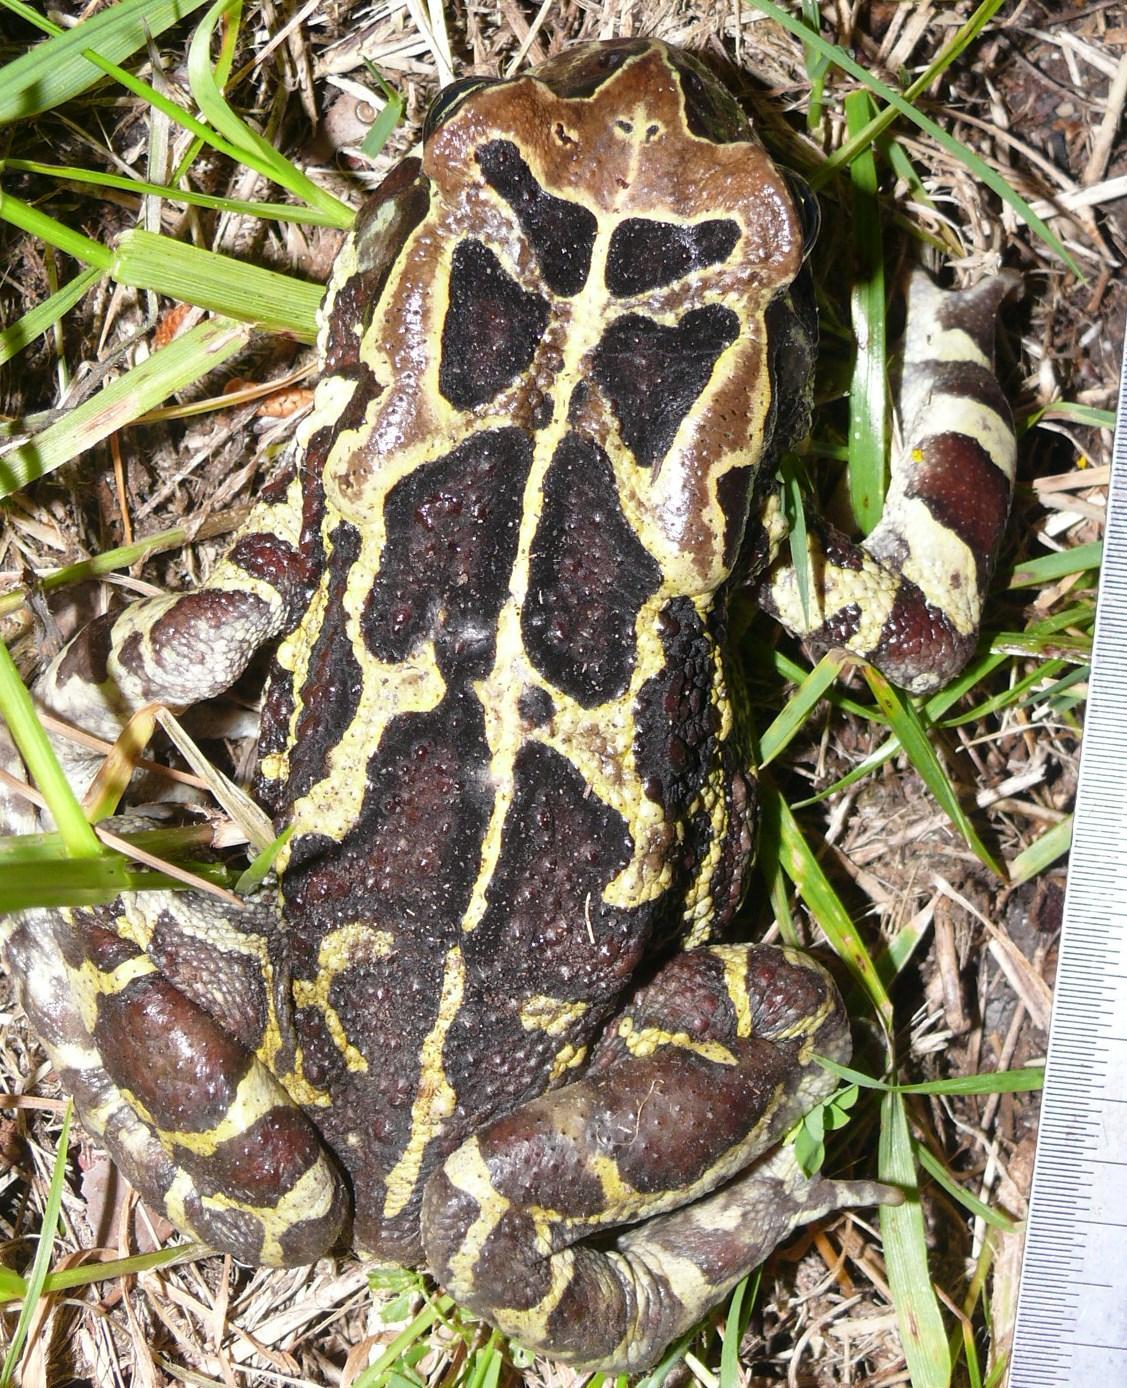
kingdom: Animalia
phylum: Chordata
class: Amphibia
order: Anura
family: Bufonidae
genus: Sclerophrys
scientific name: Sclerophrys pantherina
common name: Panther toad
